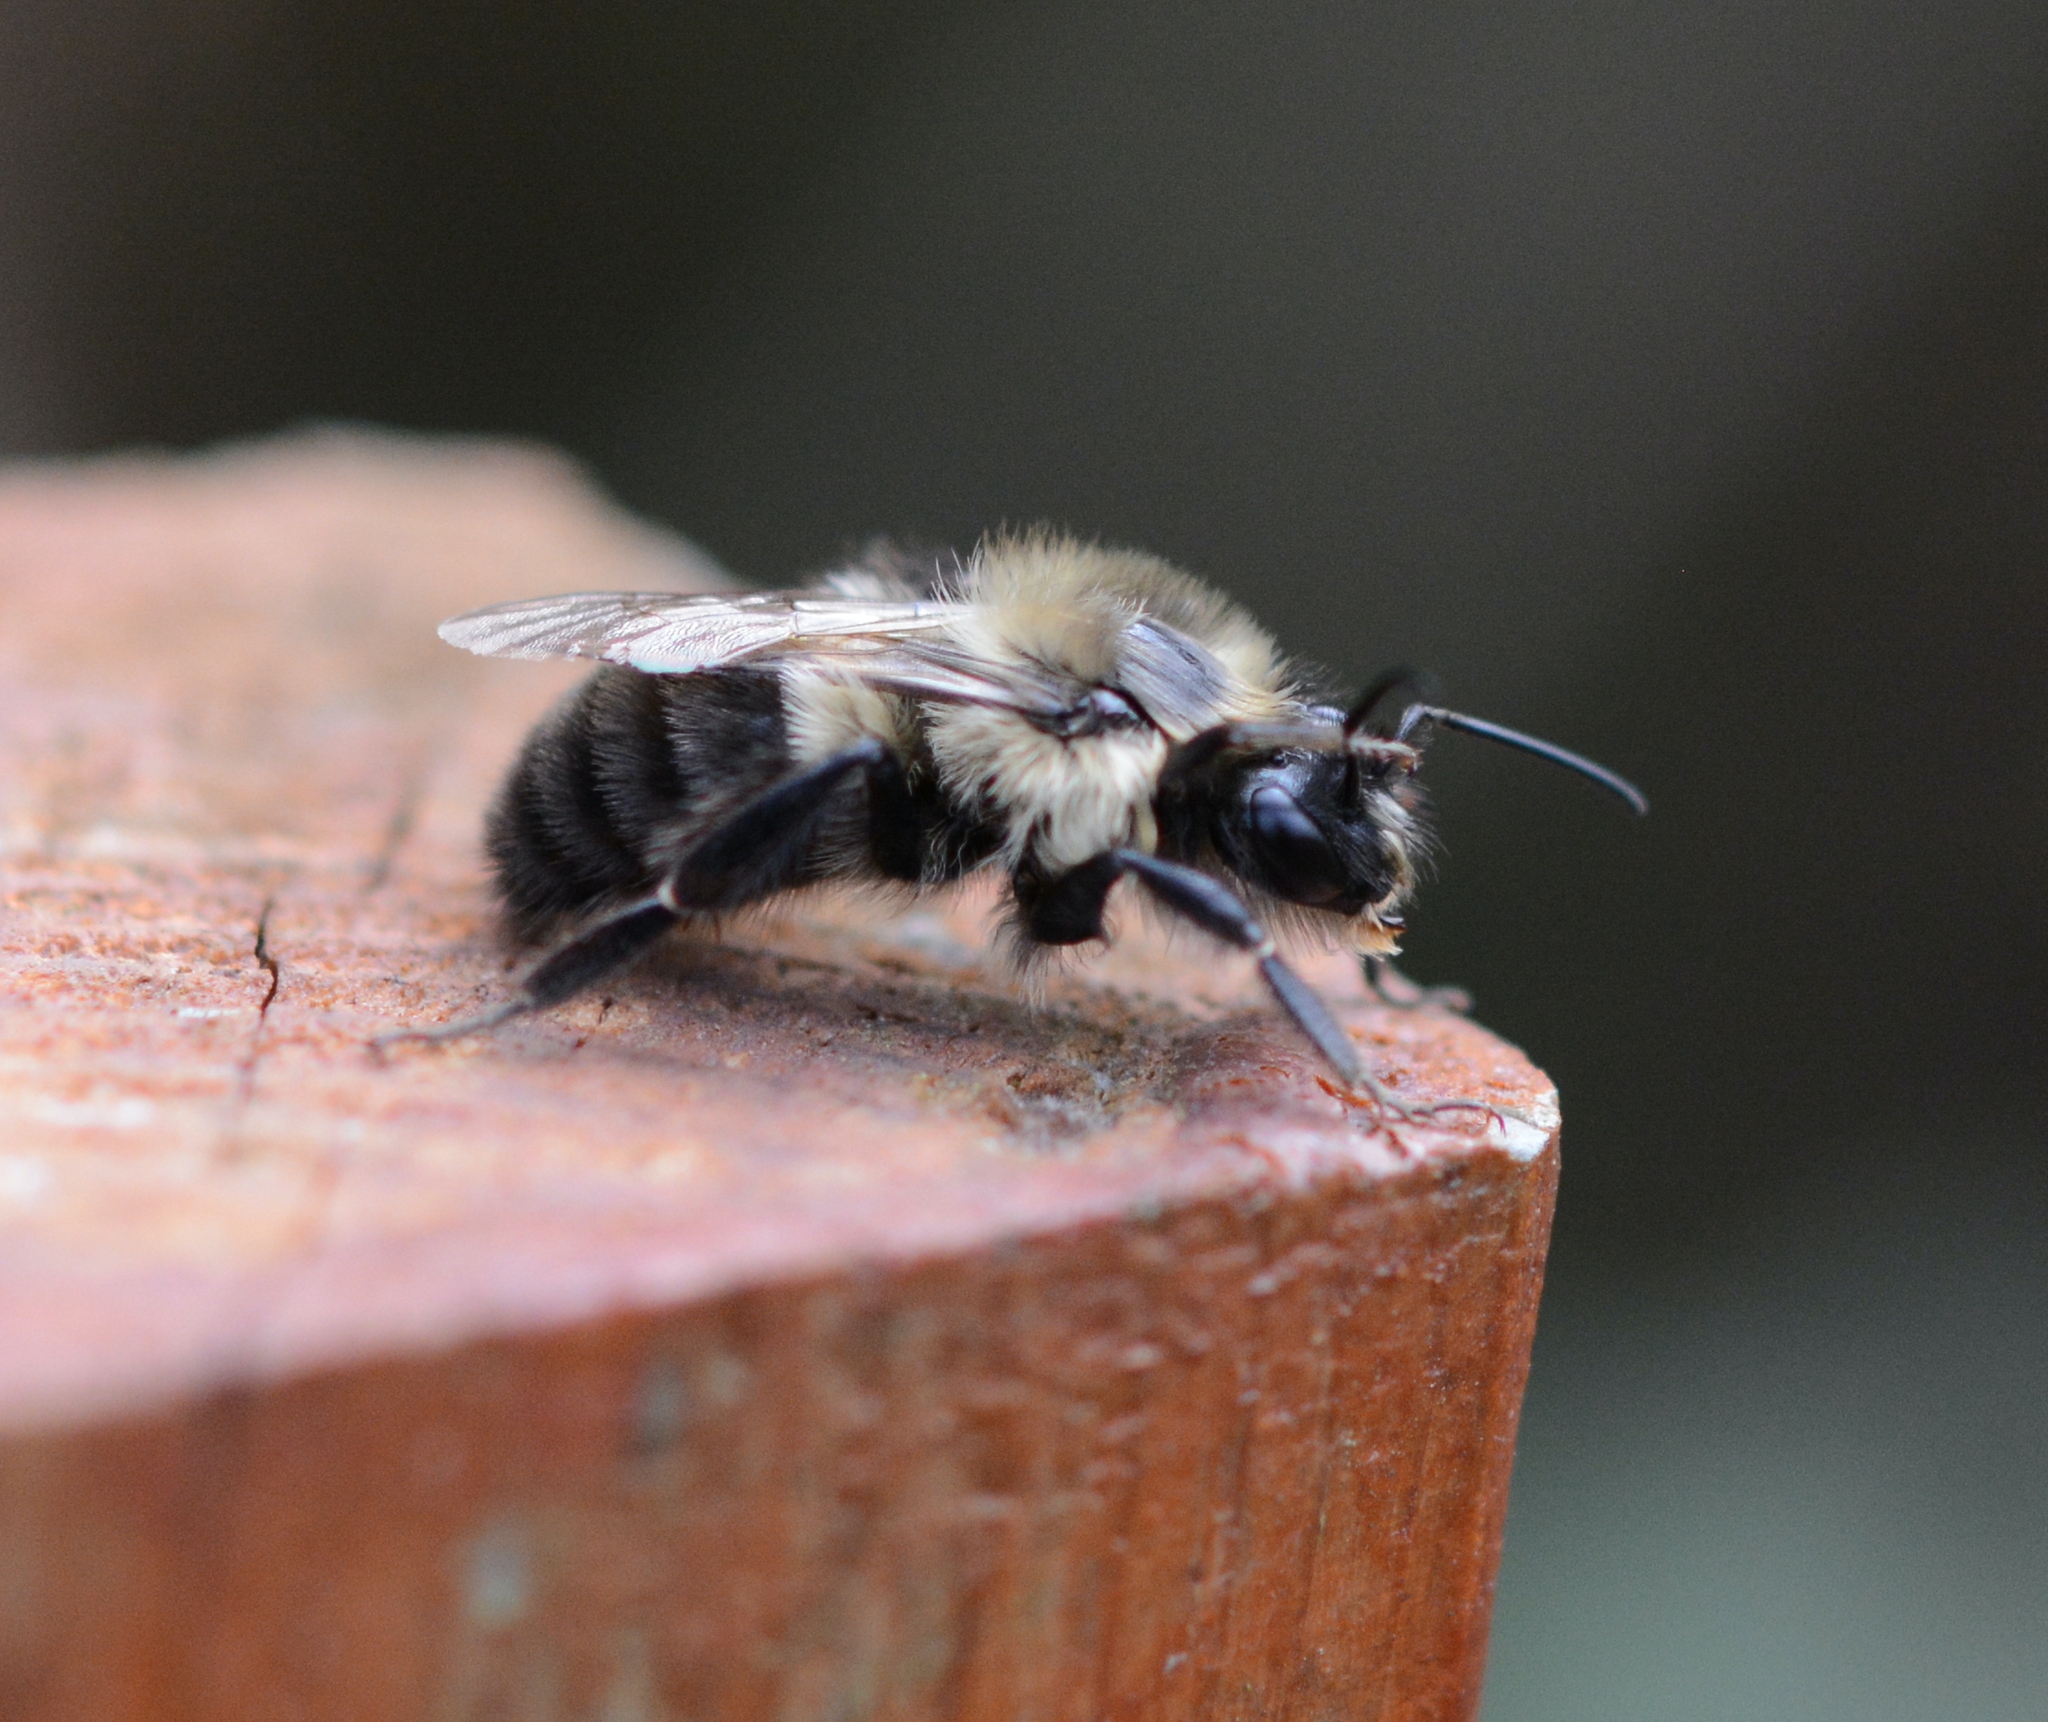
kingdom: Animalia
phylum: Arthropoda
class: Insecta
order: Hymenoptera
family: Apidae
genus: Bombus
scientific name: Bombus impatiens
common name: Common eastern bumble bee
